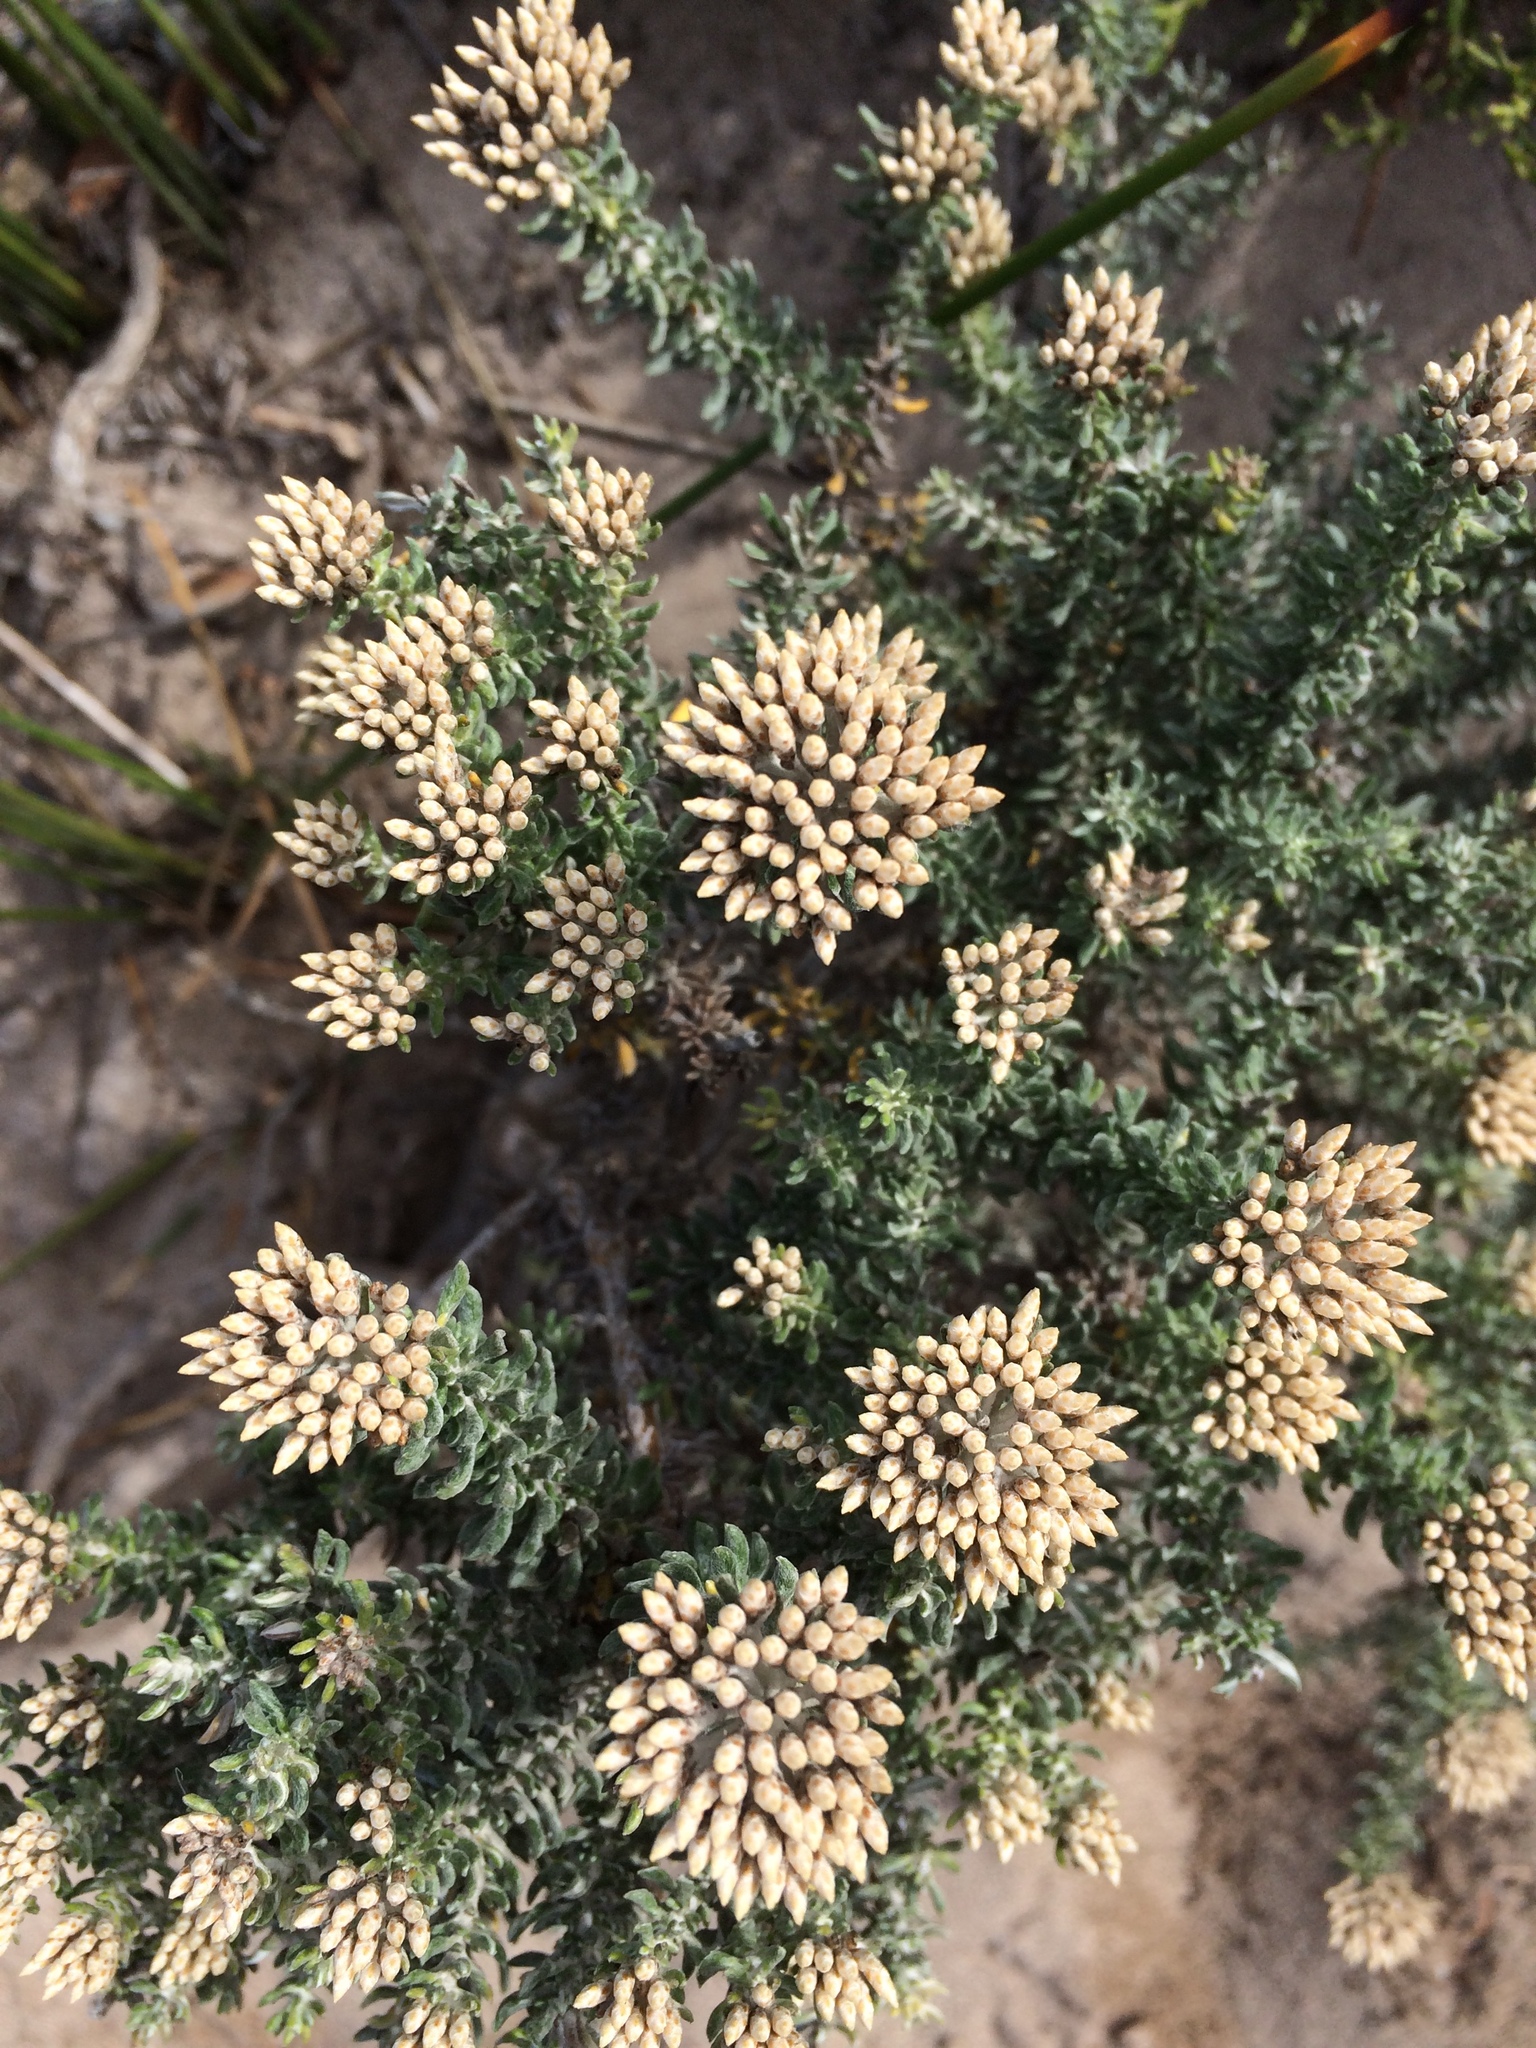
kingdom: Plantae
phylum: Tracheophyta
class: Magnoliopsida
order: Asterales
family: Asteraceae
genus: Metalasia
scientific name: Metalasia densa
